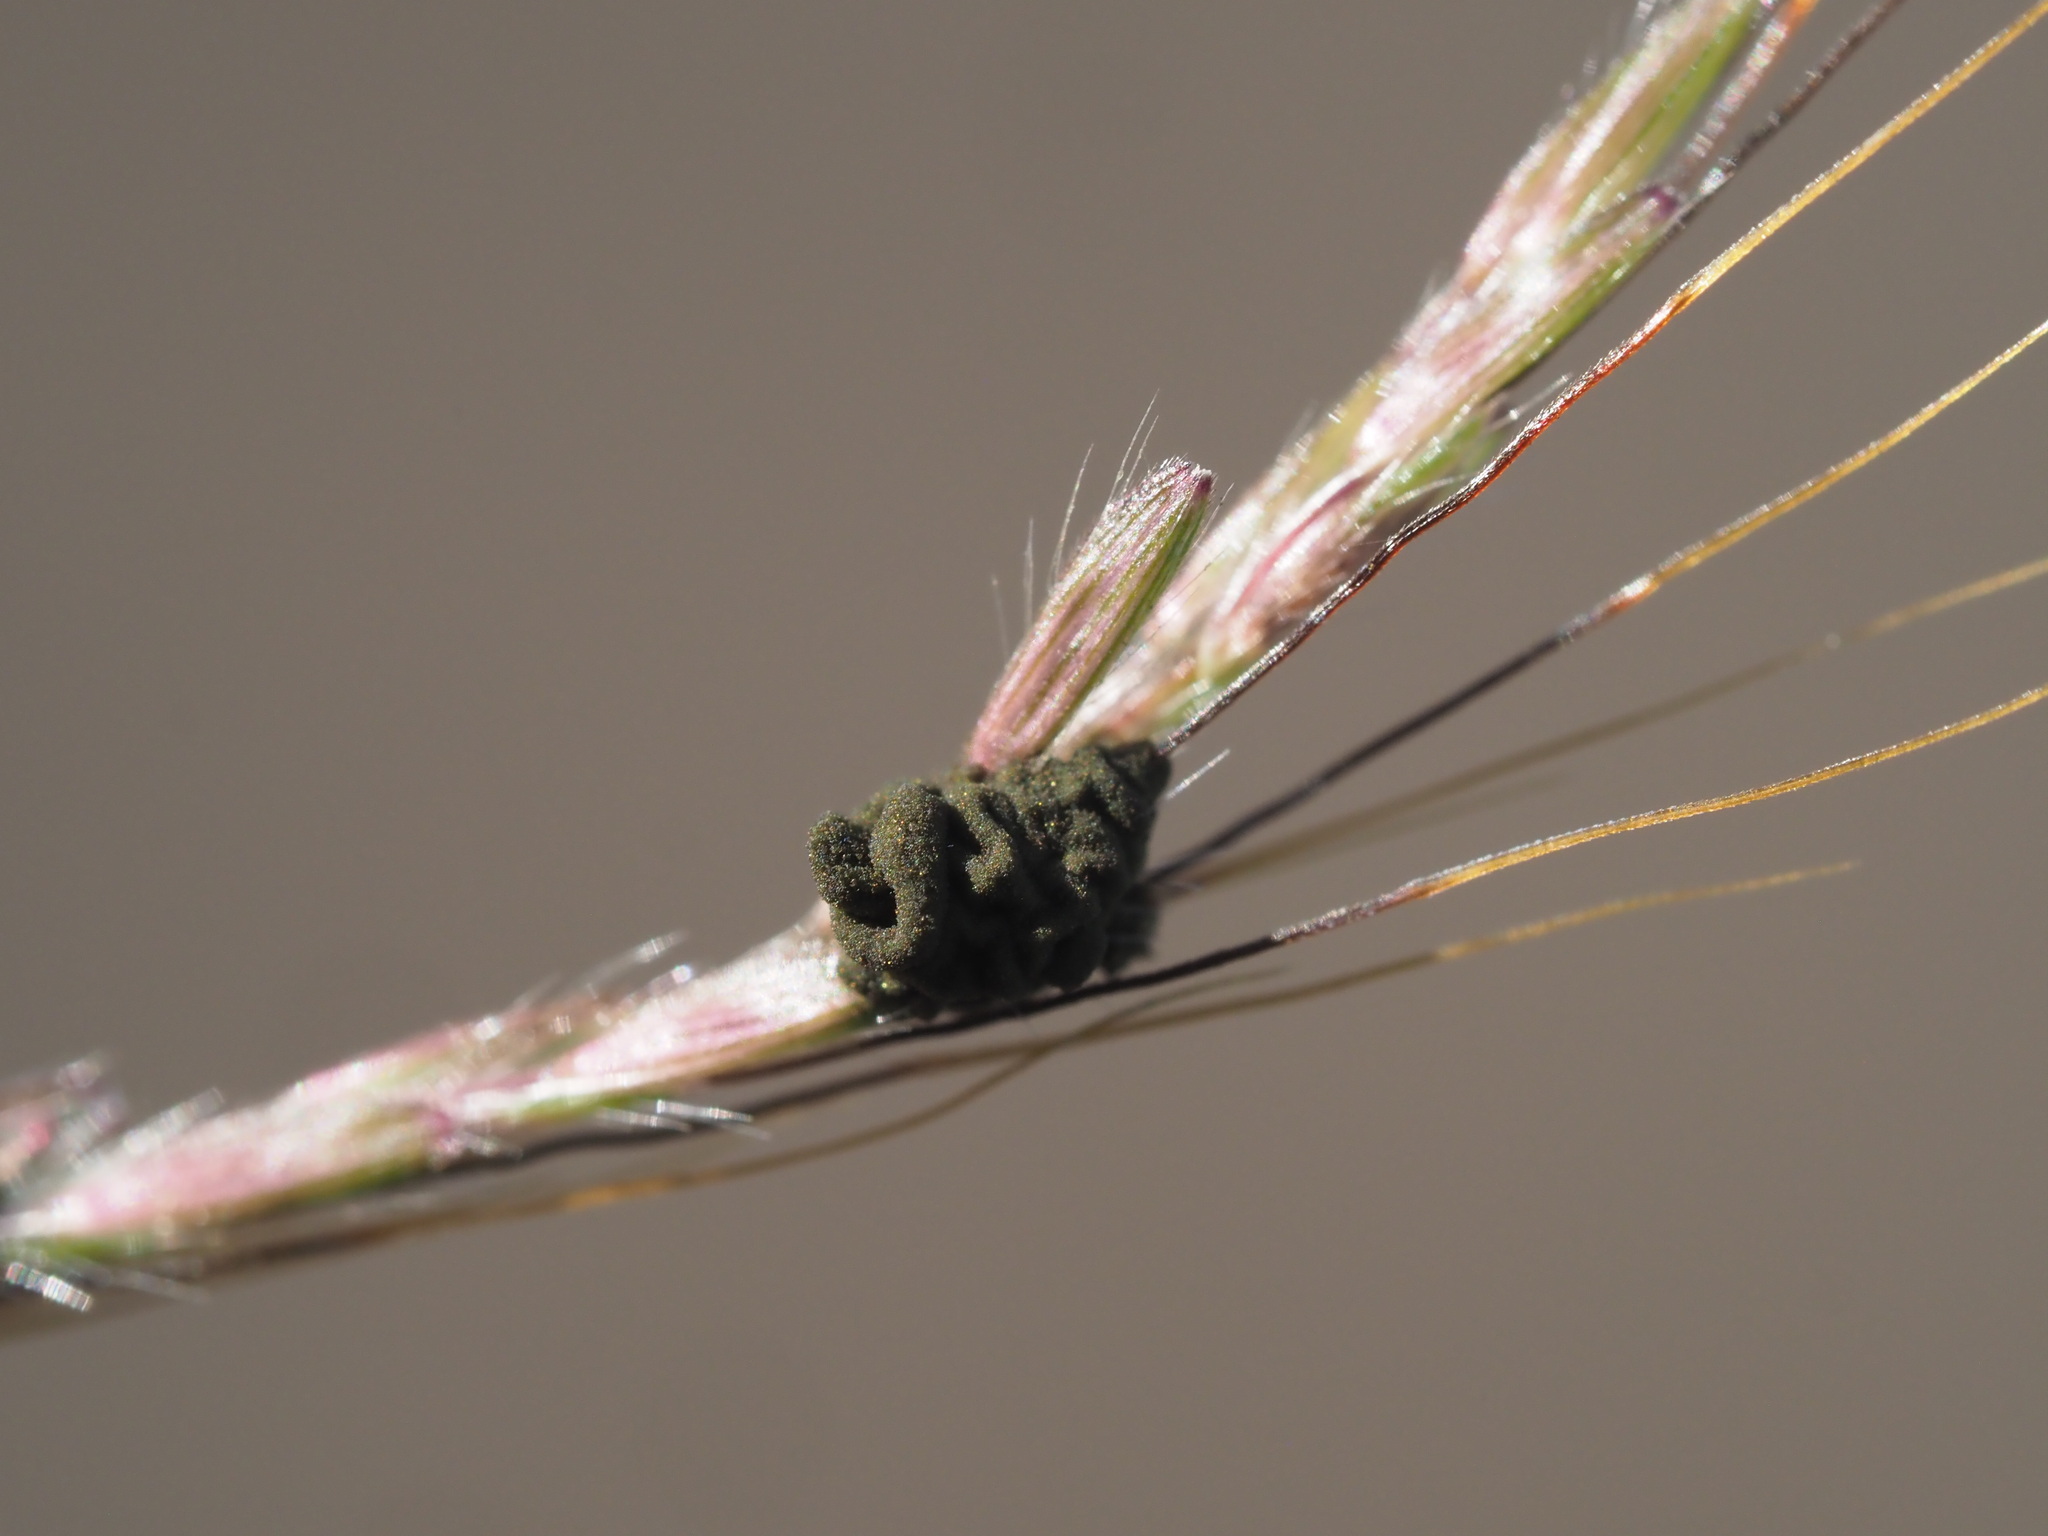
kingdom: Fungi
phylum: Ascomycota
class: Dothideomycetes
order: Pleosporales
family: Didymellaceae
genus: Epicoccum
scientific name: Epicoccum andropogonis
